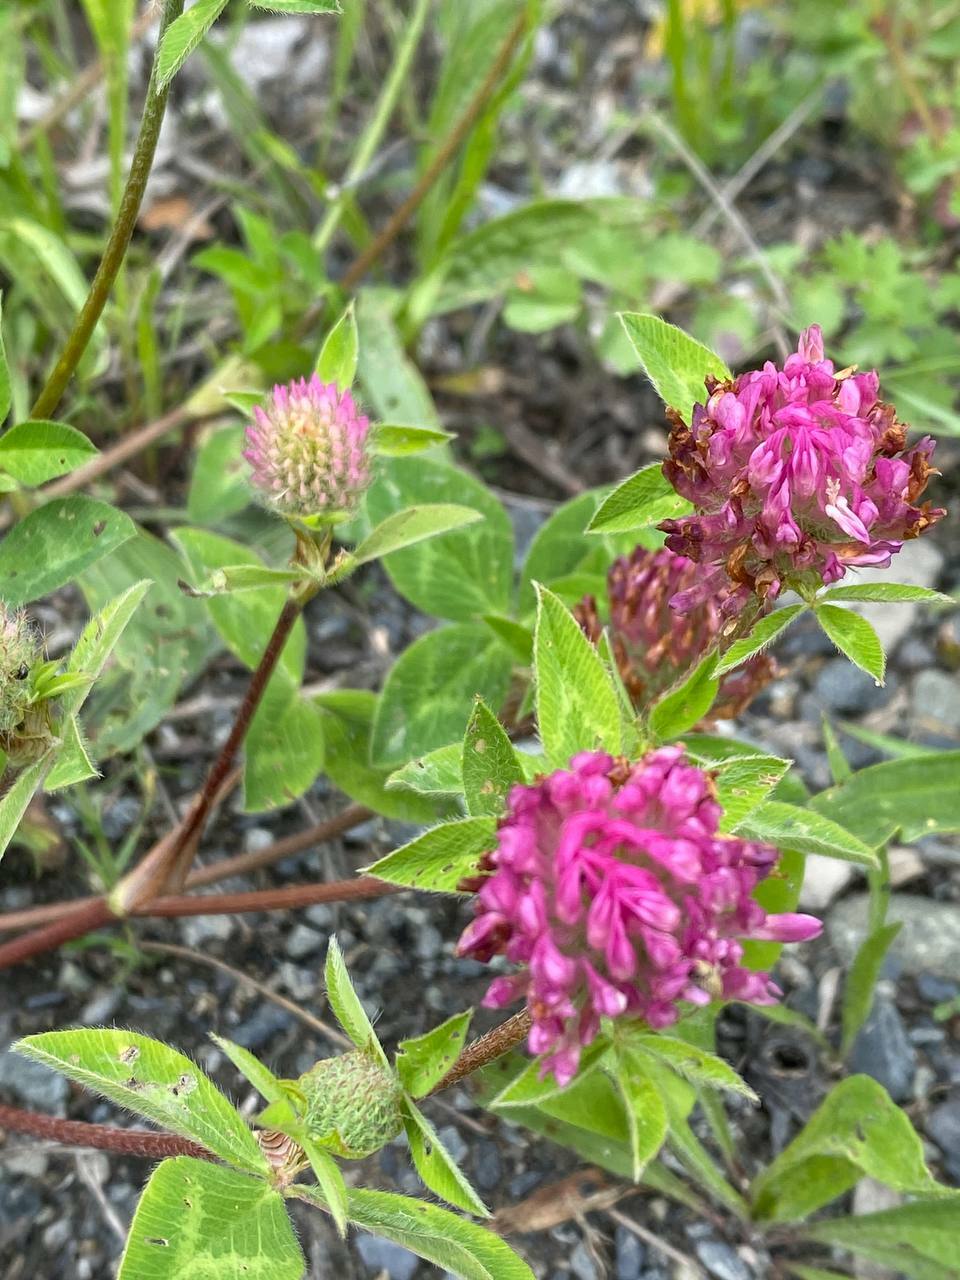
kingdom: Plantae
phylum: Tracheophyta
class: Magnoliopsida
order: Fabales
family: Fabaceae
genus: Trifolium
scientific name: Trifolium pratense
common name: Red clover
